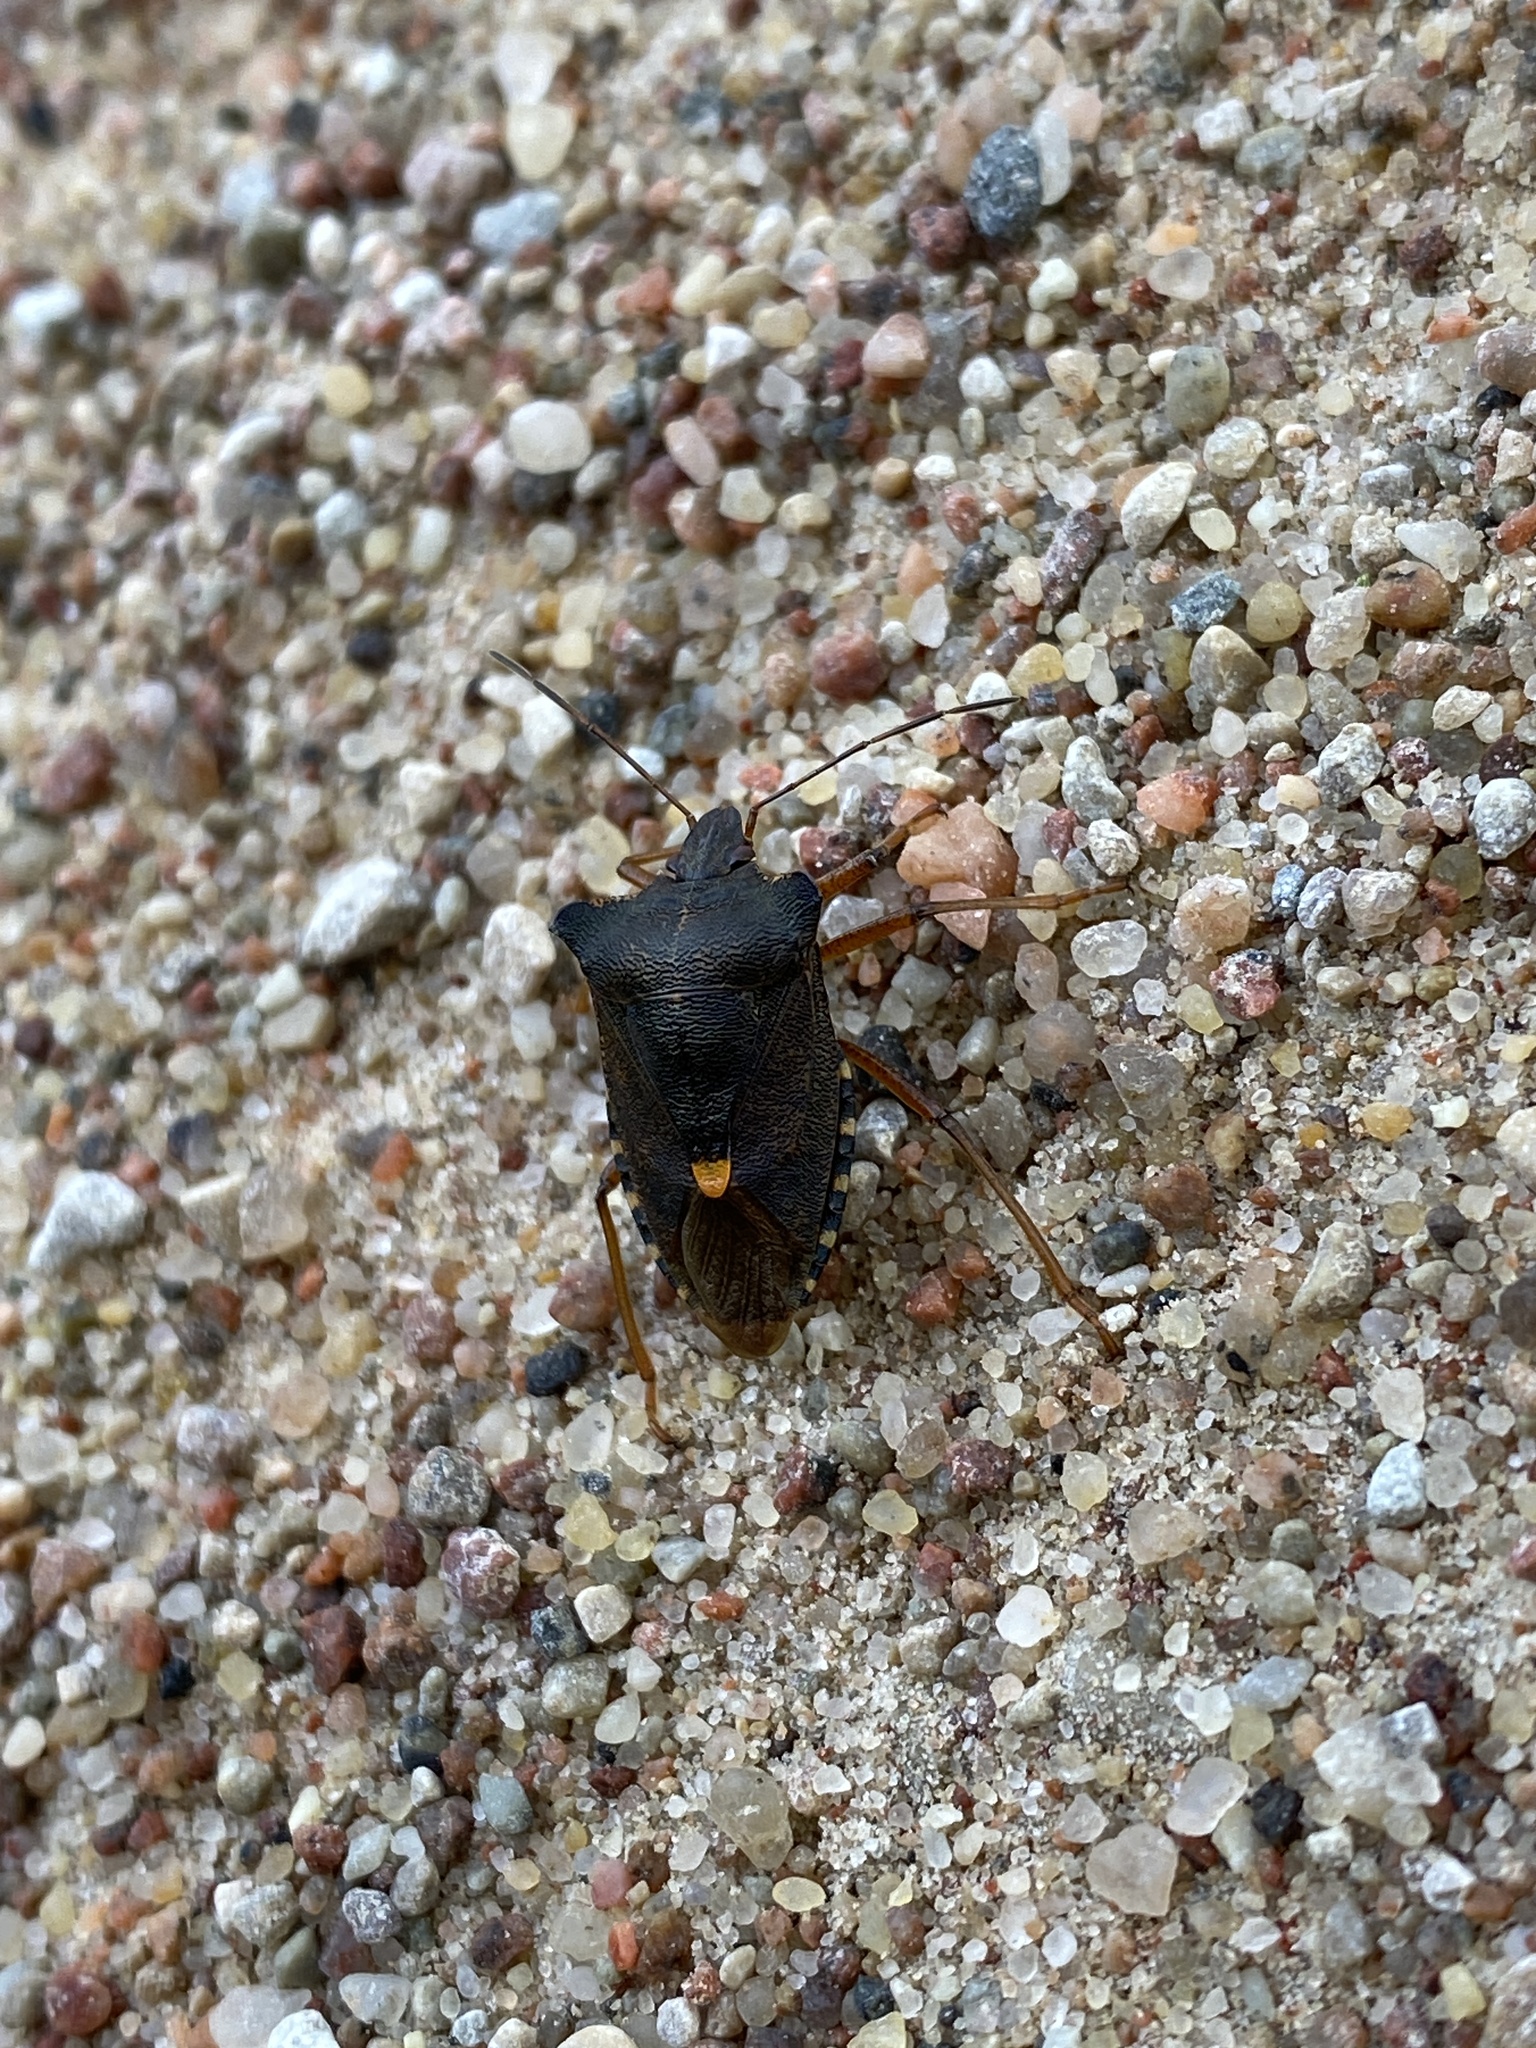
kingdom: Animalia
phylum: Arthropoda
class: Insecta
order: Hemiptera
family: Pentatomidae
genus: Pentatoma
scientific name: Pentatoma rufipes
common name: Forest bug
